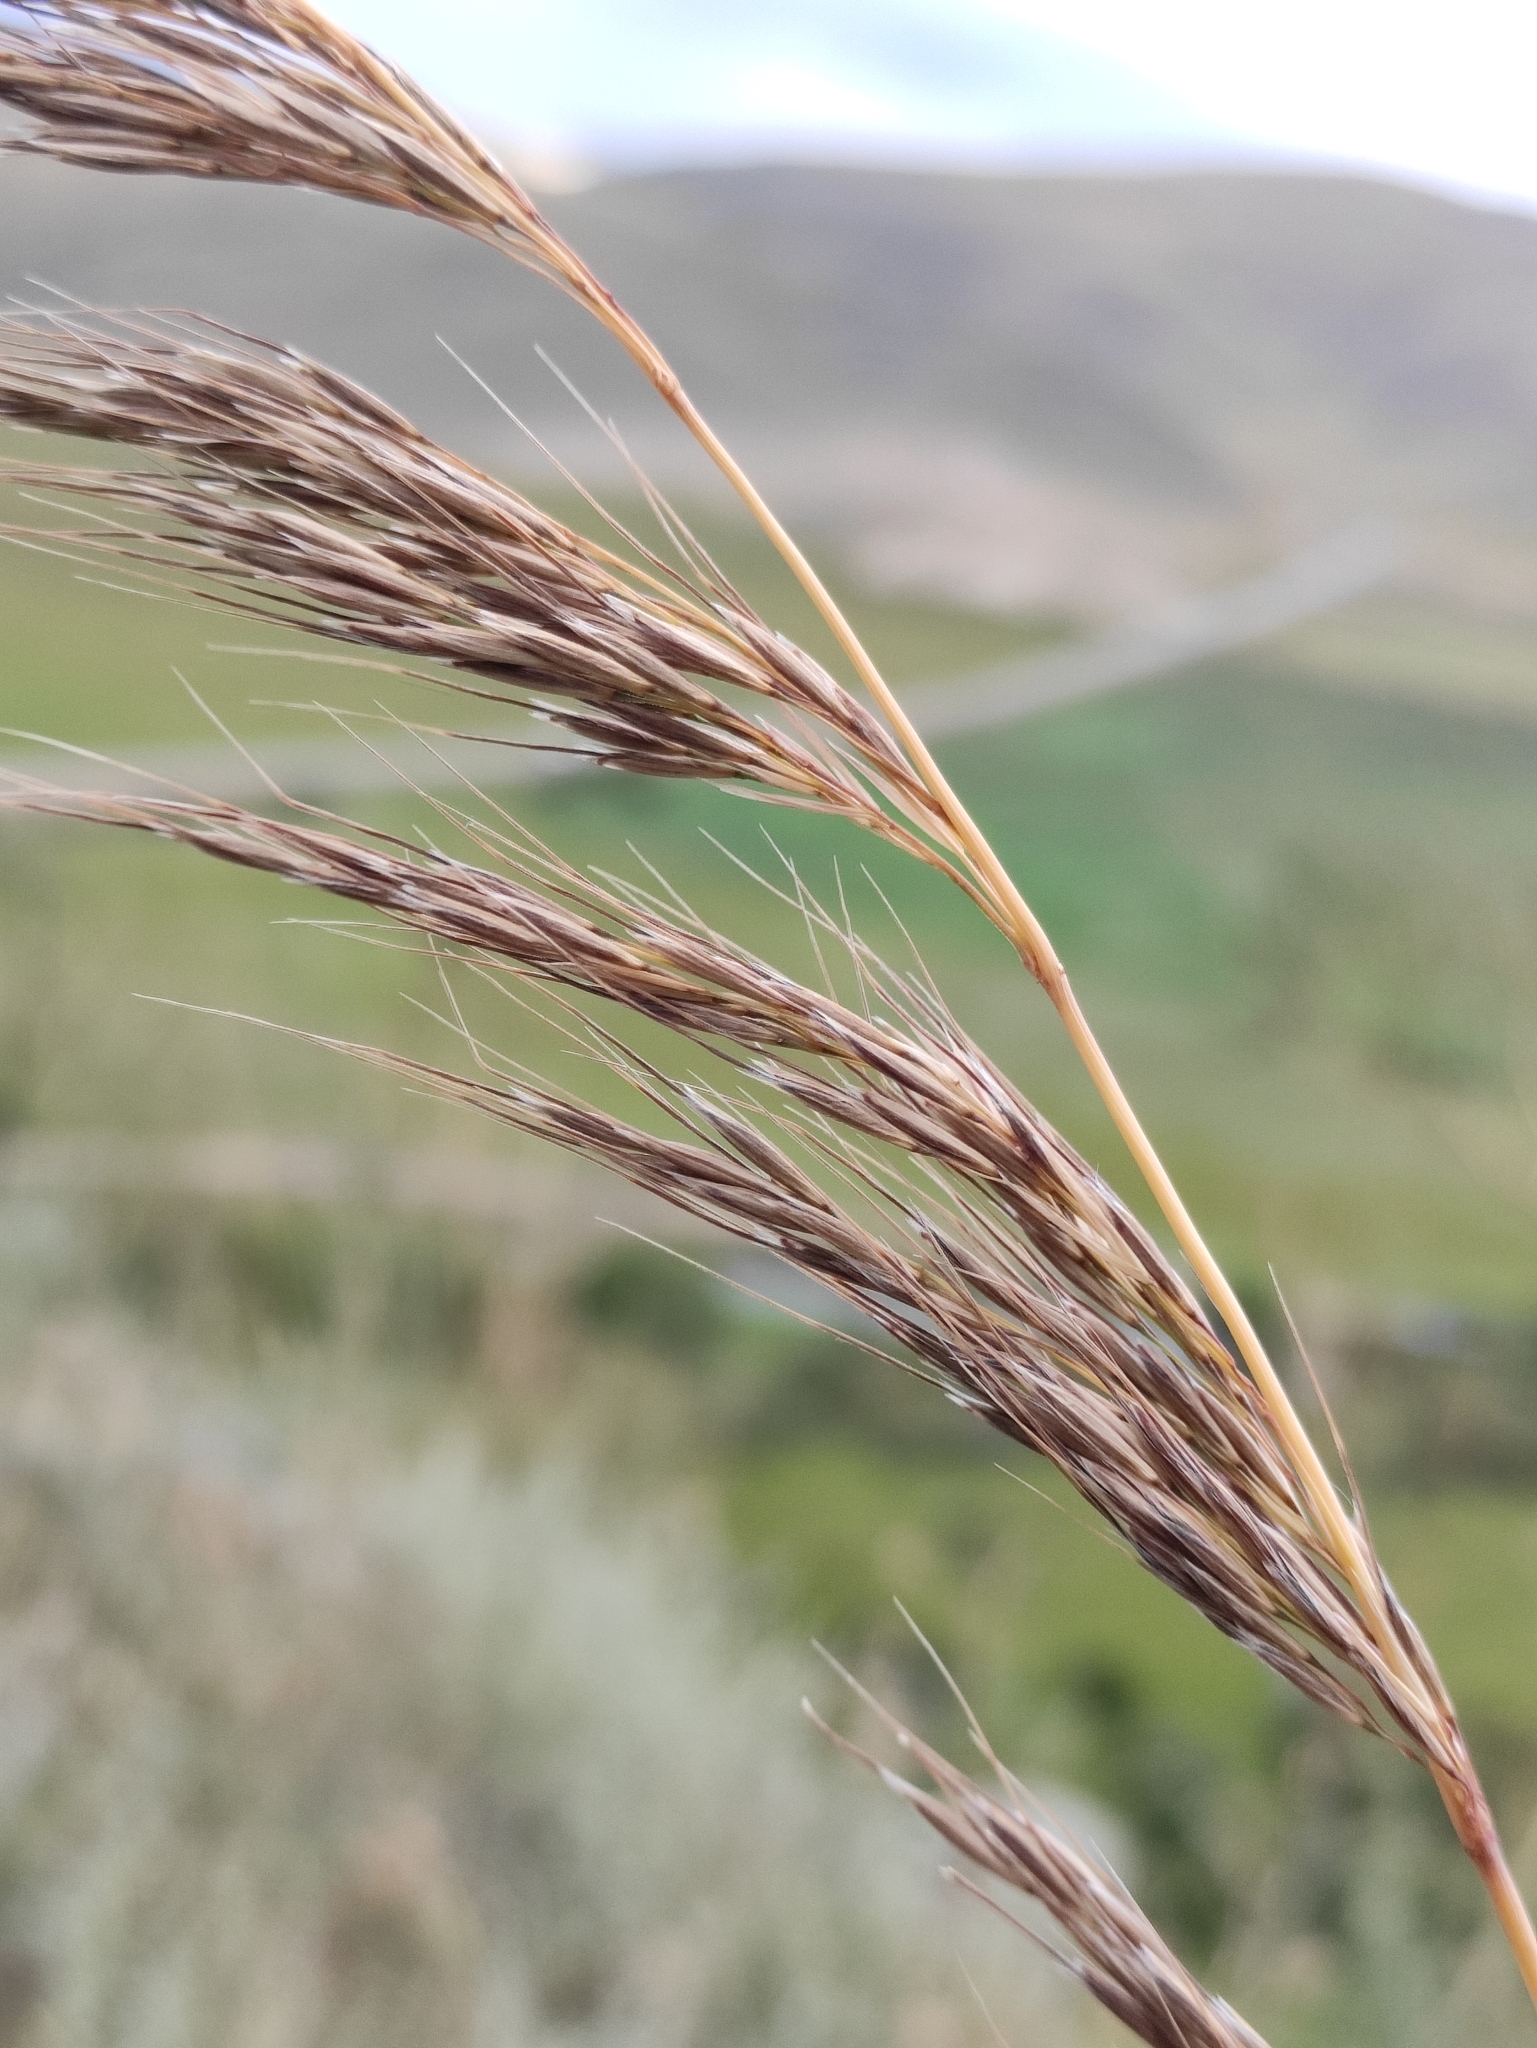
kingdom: Plantae
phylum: Tracheophyta
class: Liliopsida
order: Poales
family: Poaceae
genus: Achnatherum
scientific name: Achnatherum sibiricum
